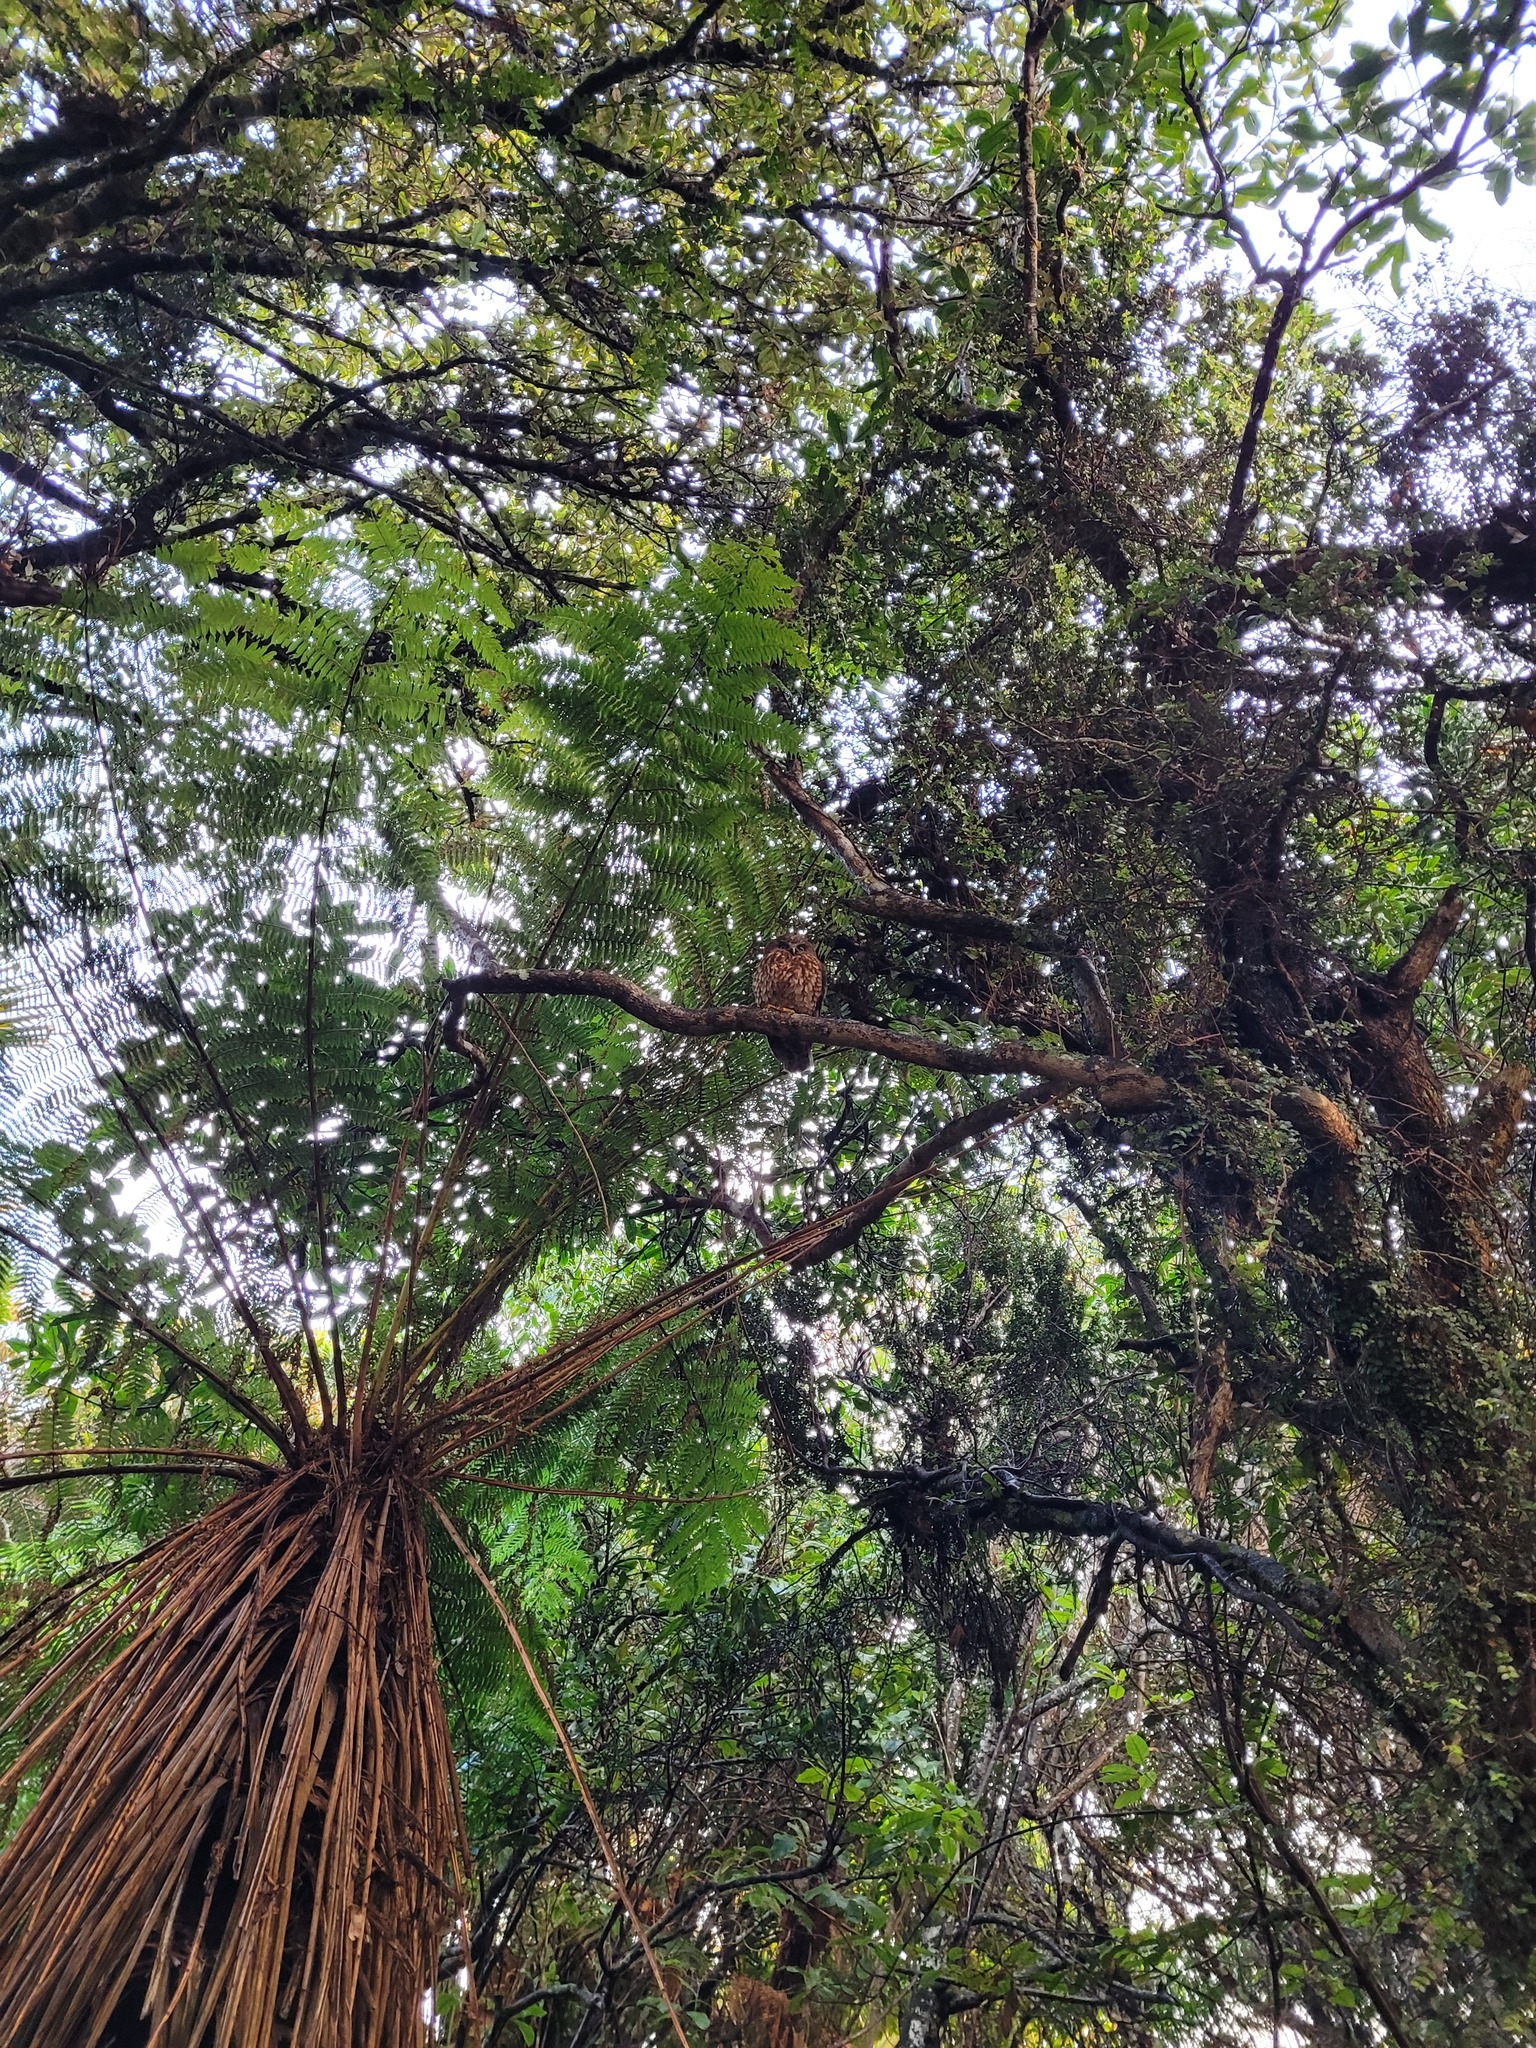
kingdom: Animalia
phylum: Chordata
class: Aves
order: Strigiformes
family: Strigidae
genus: Ninox
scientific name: Ninox novaeseelandiae
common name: Morepork
